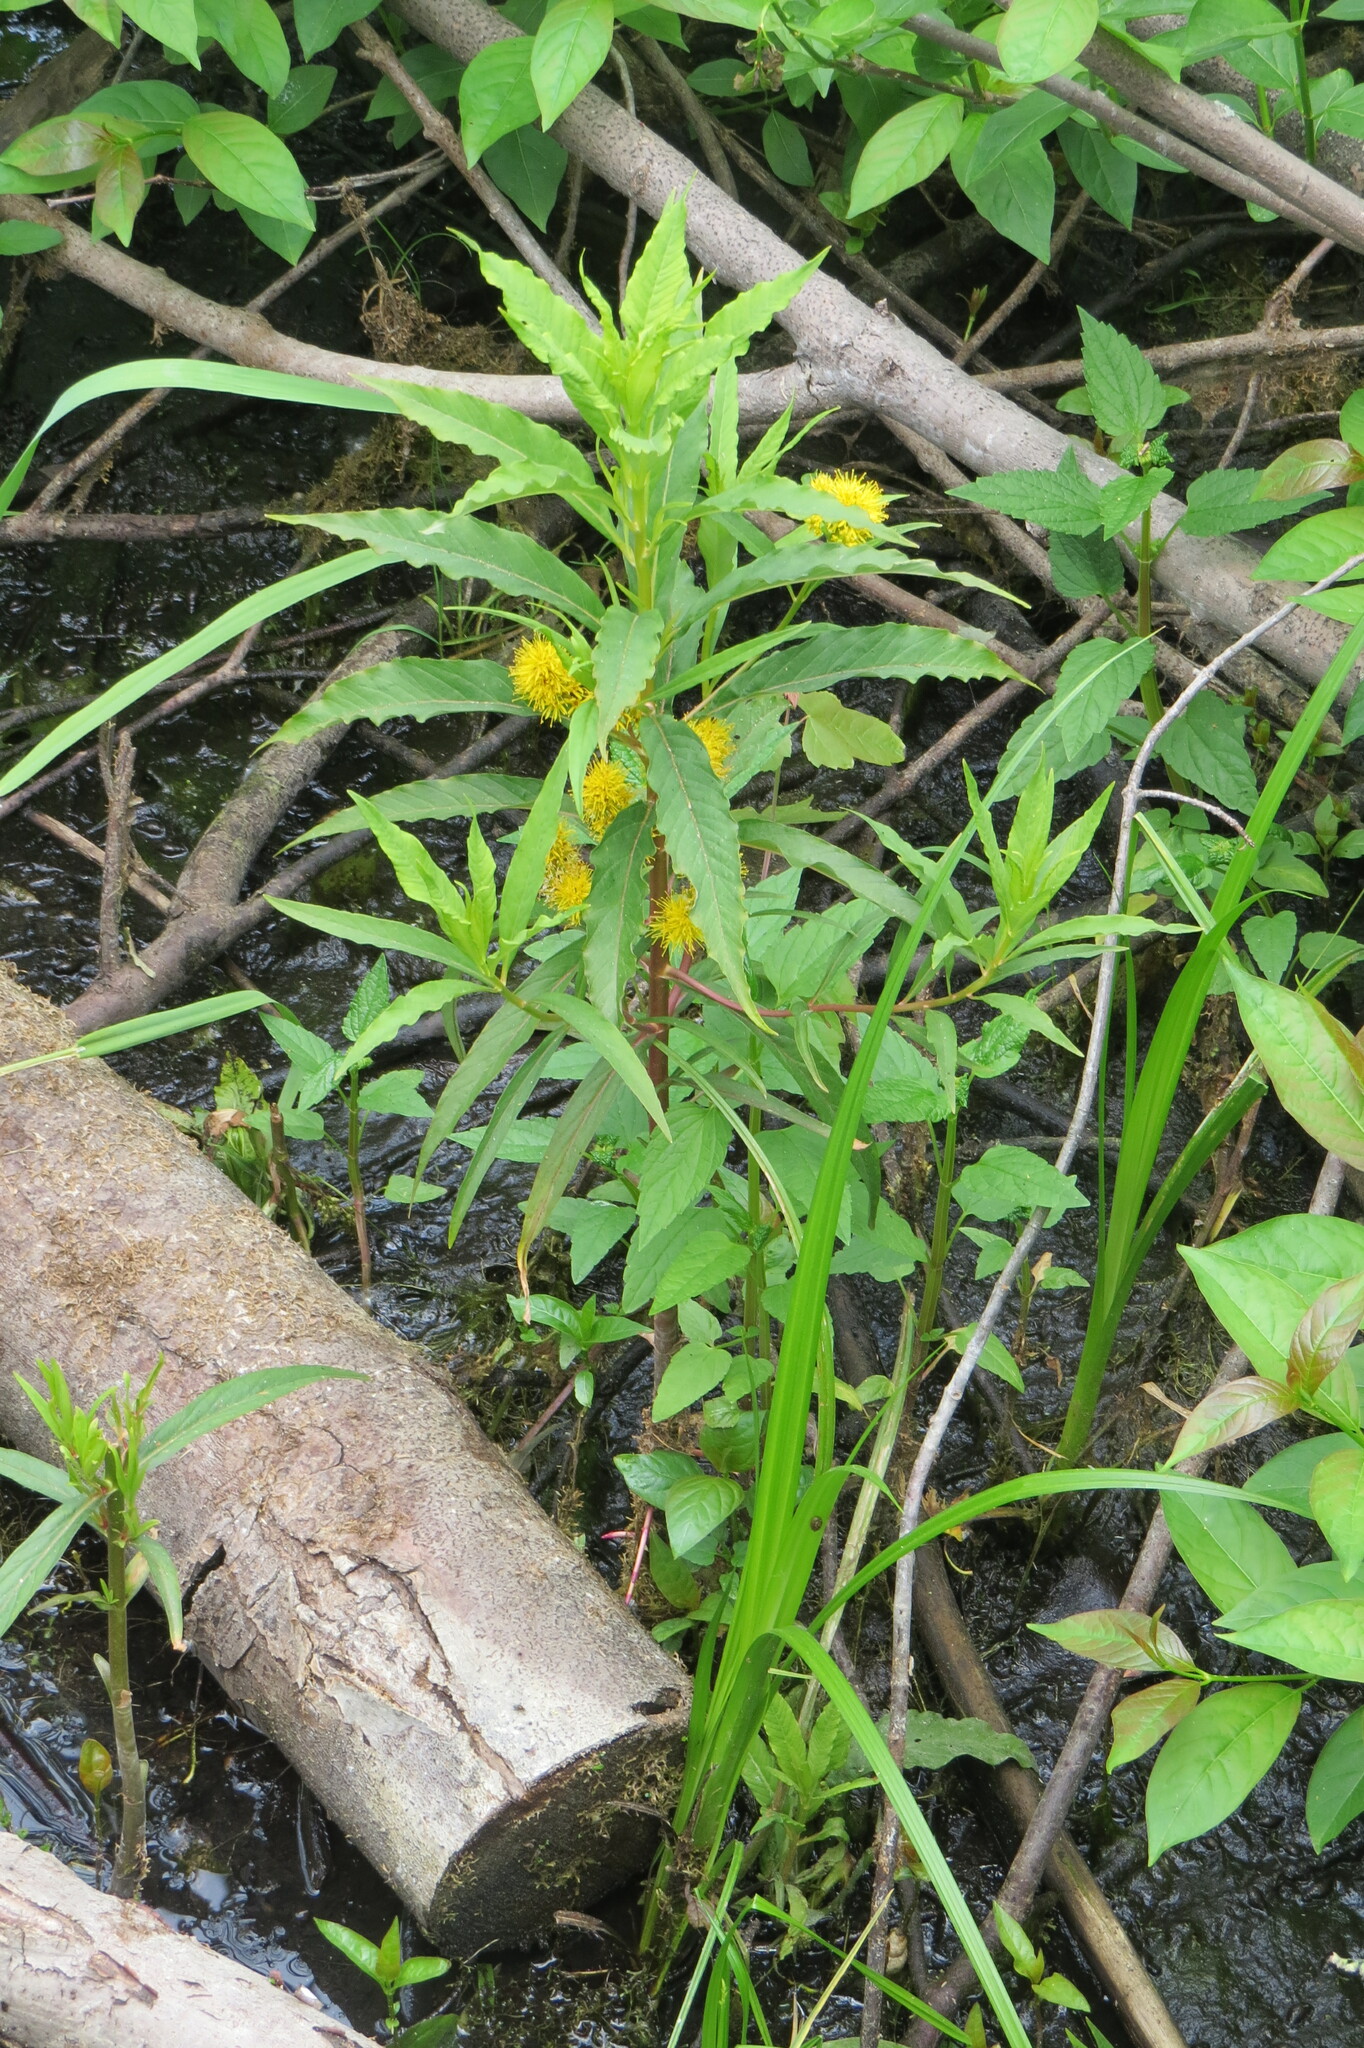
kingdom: Plantae
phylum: Tracheophyta
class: Magnoliopsida
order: Ericales
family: Primulaceae
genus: Lysimachia
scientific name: Lysimachia thyrsiflora
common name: Tufted loosestrife
